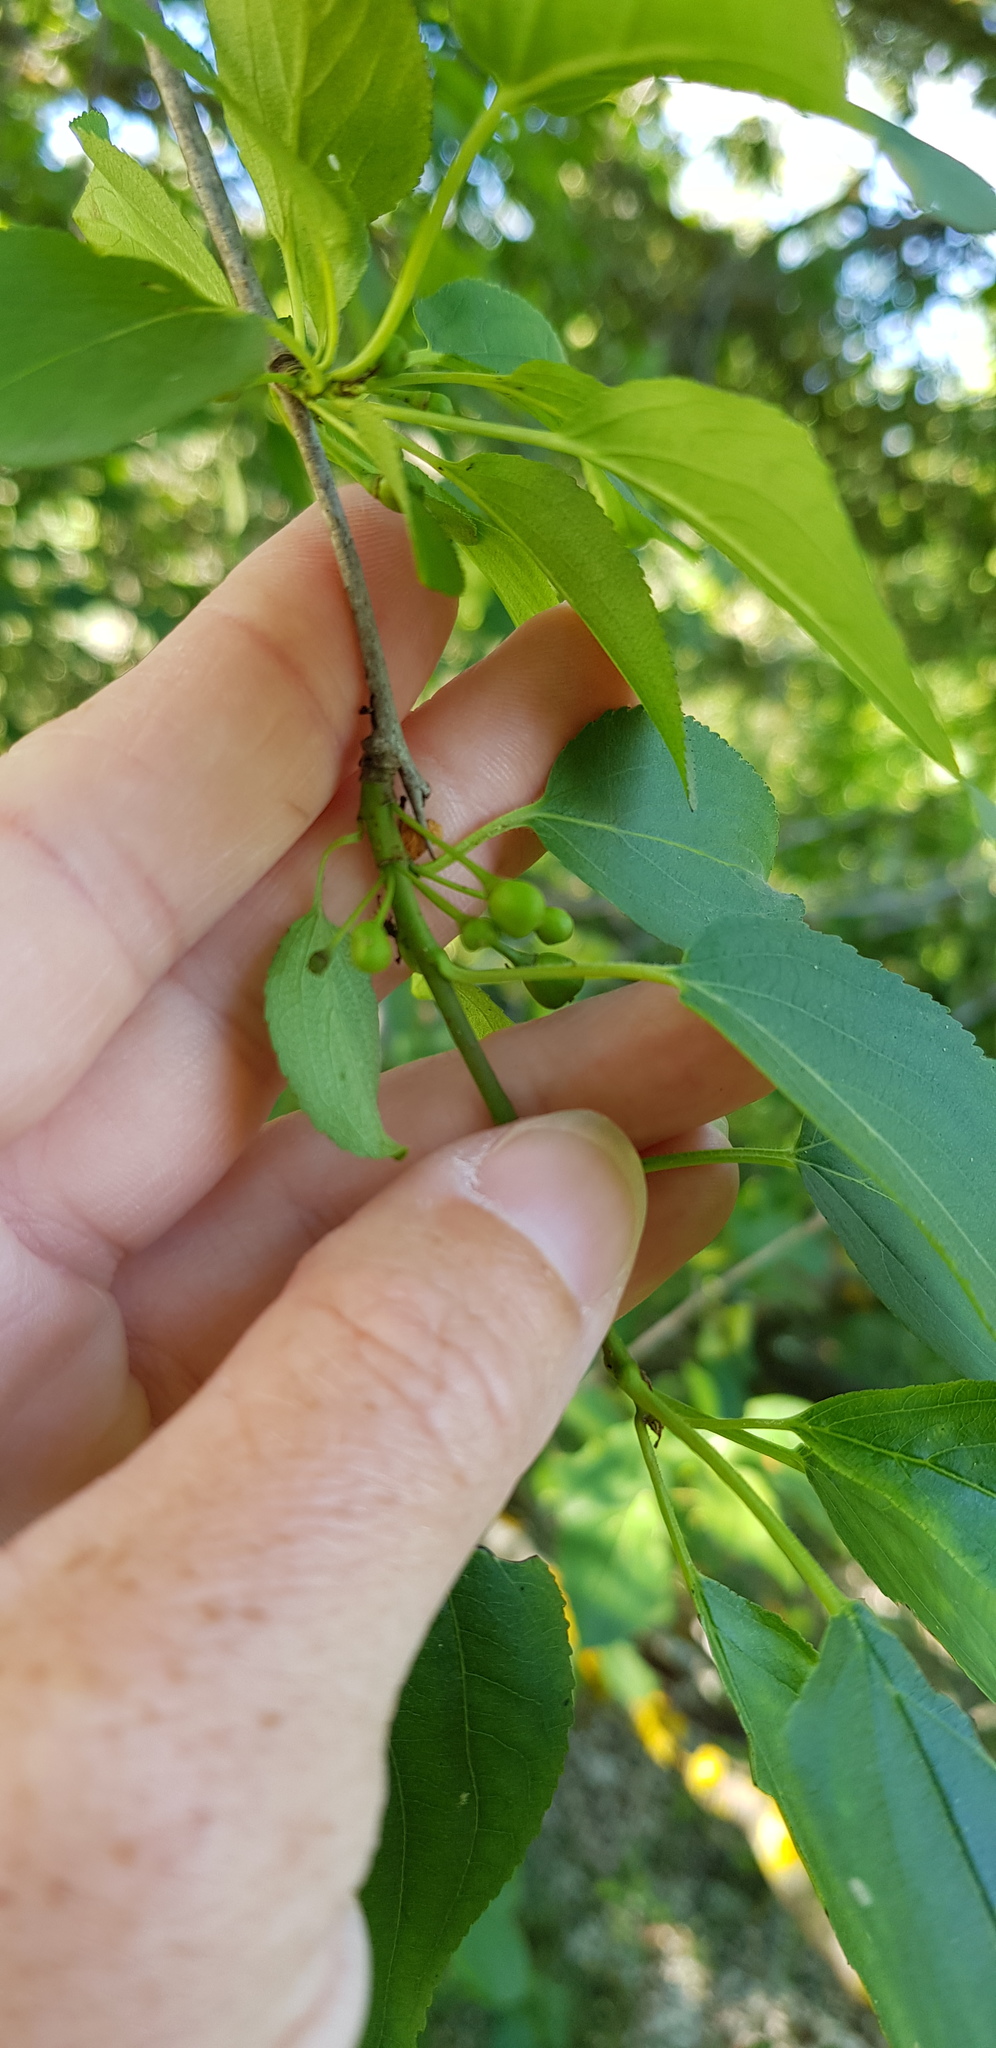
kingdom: Plantae
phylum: Tracheophyta
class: Magnoliopsida
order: Rosales
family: Rhamnaceae
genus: Rhamnus
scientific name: Rhamnus cathartica
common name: Common buckthorn
